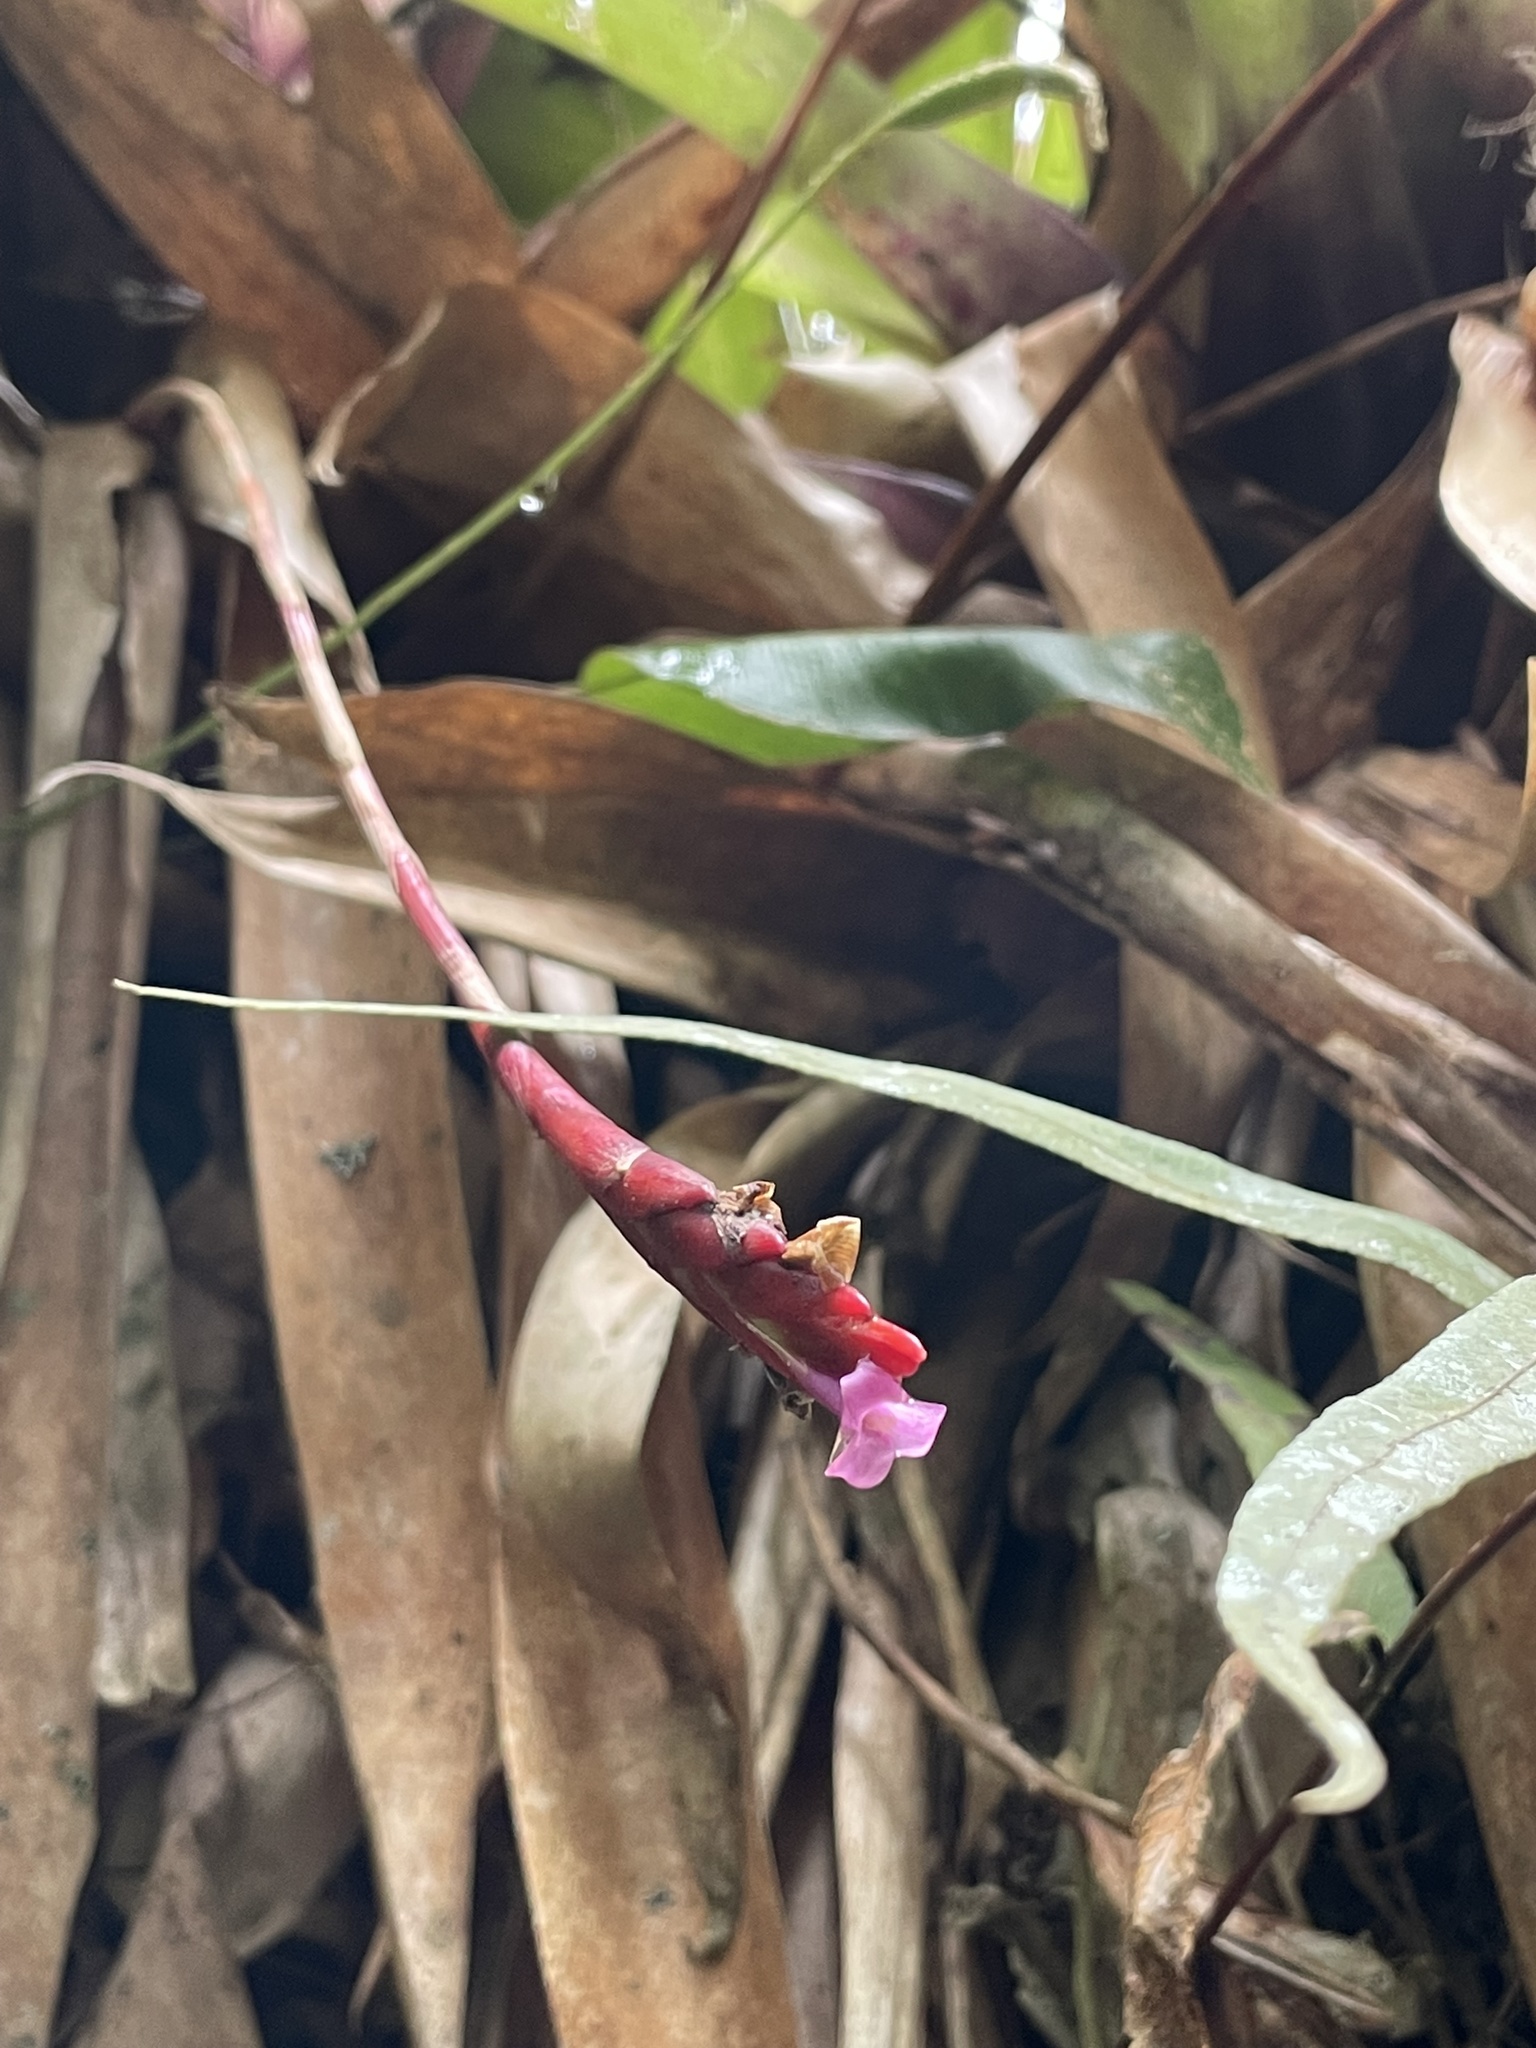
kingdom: Plantae
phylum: Tracheophyta
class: Liliopsida
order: Poales
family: Bromeliaceae
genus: Tillandsia
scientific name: Tillandsia complanata
